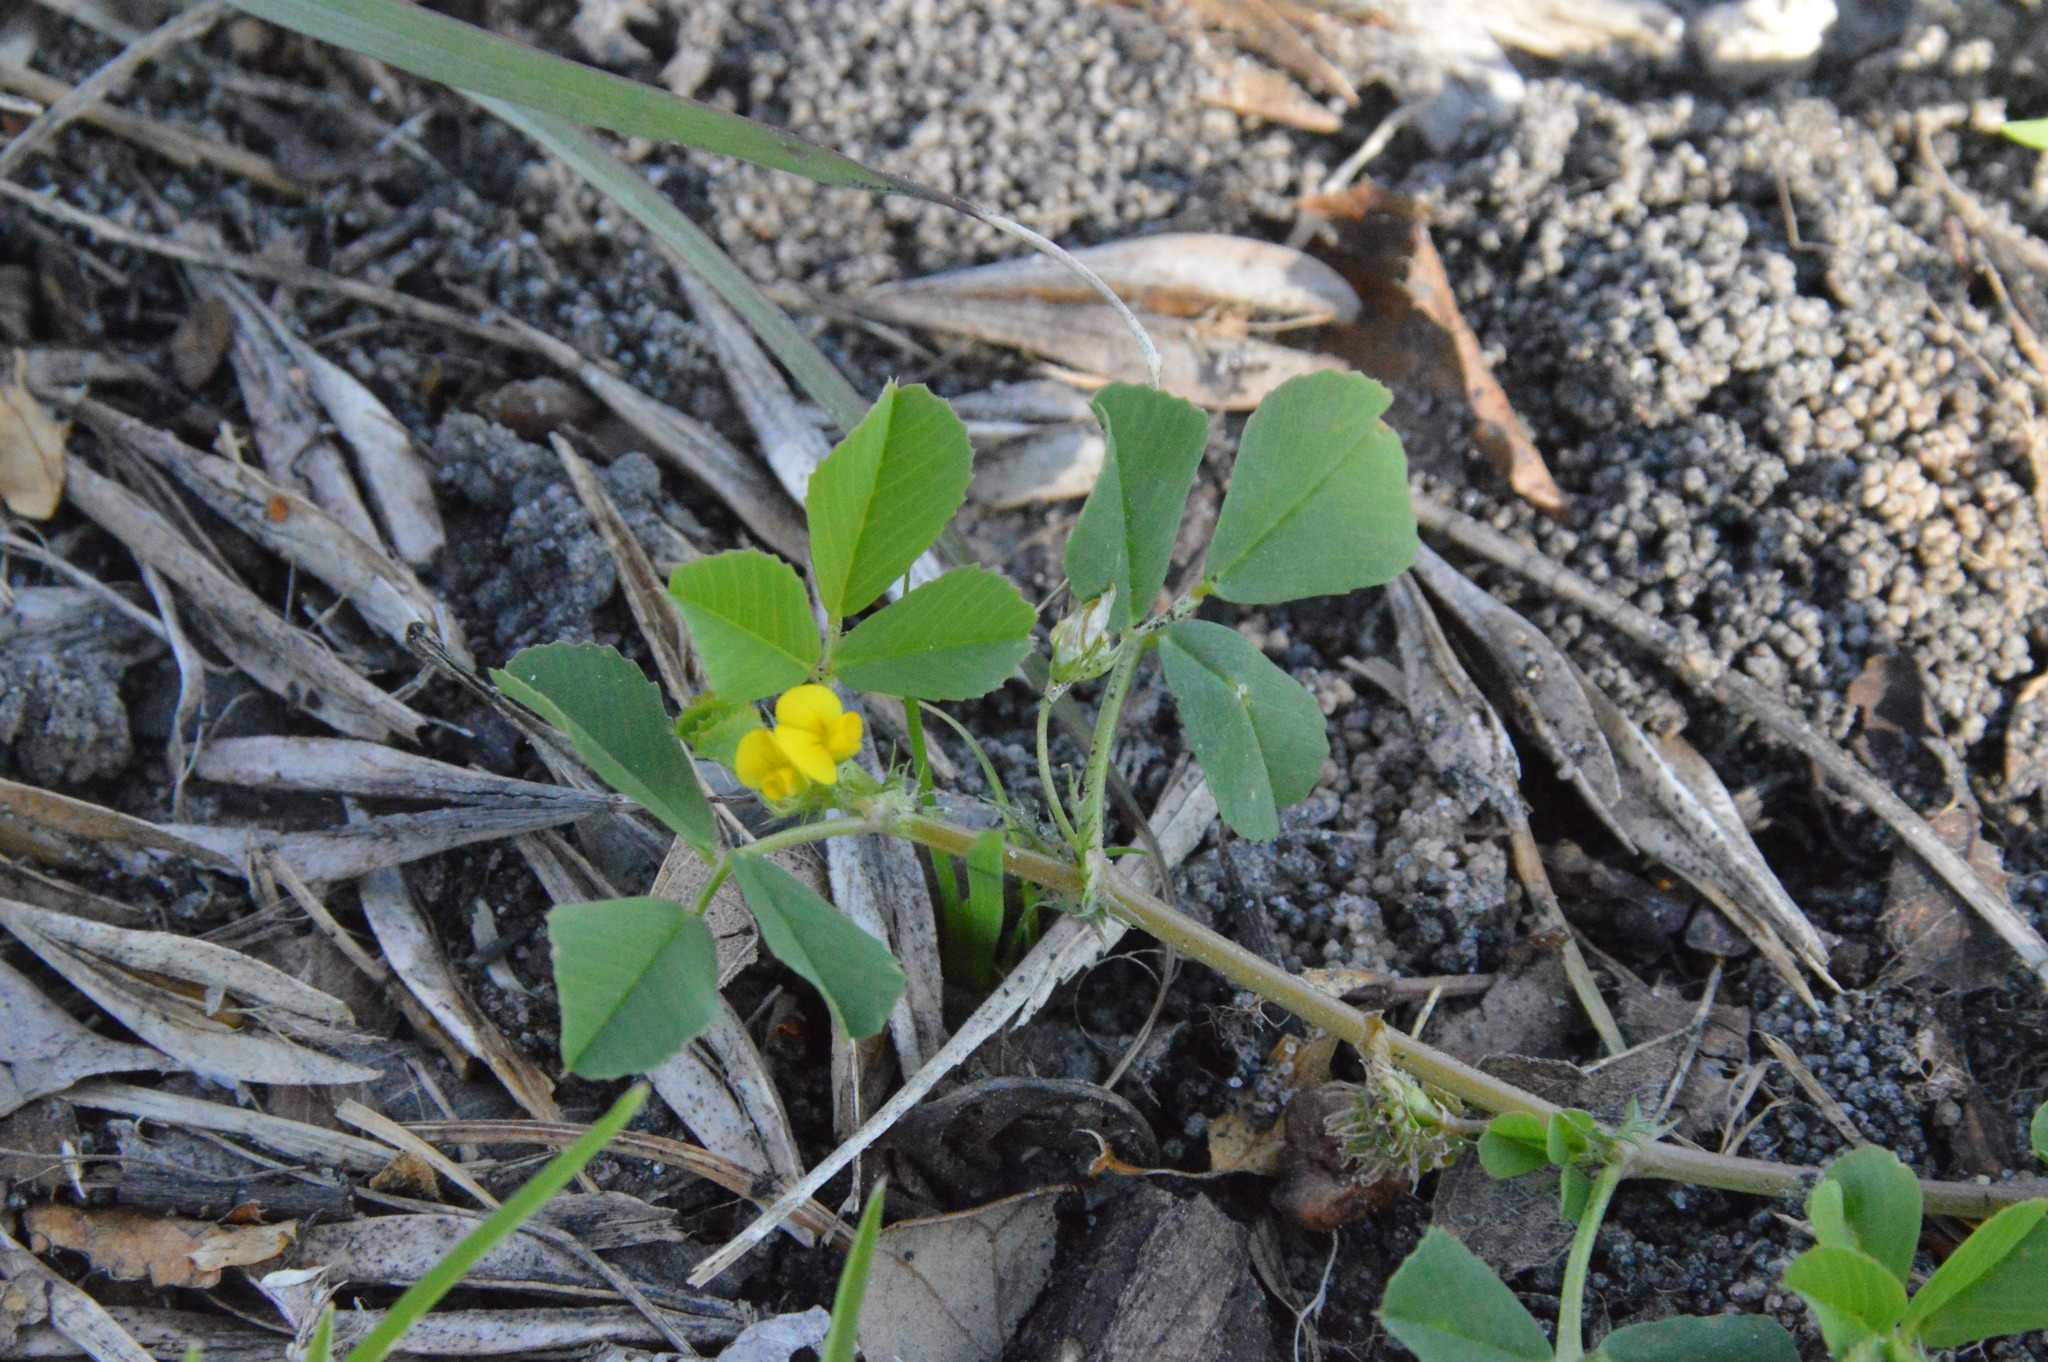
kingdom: Plantae
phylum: Tracheophyta
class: Magnoliopsida
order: Fabales
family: Fabaceae
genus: Medicago
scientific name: Medicago polymorpha
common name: Burclover
